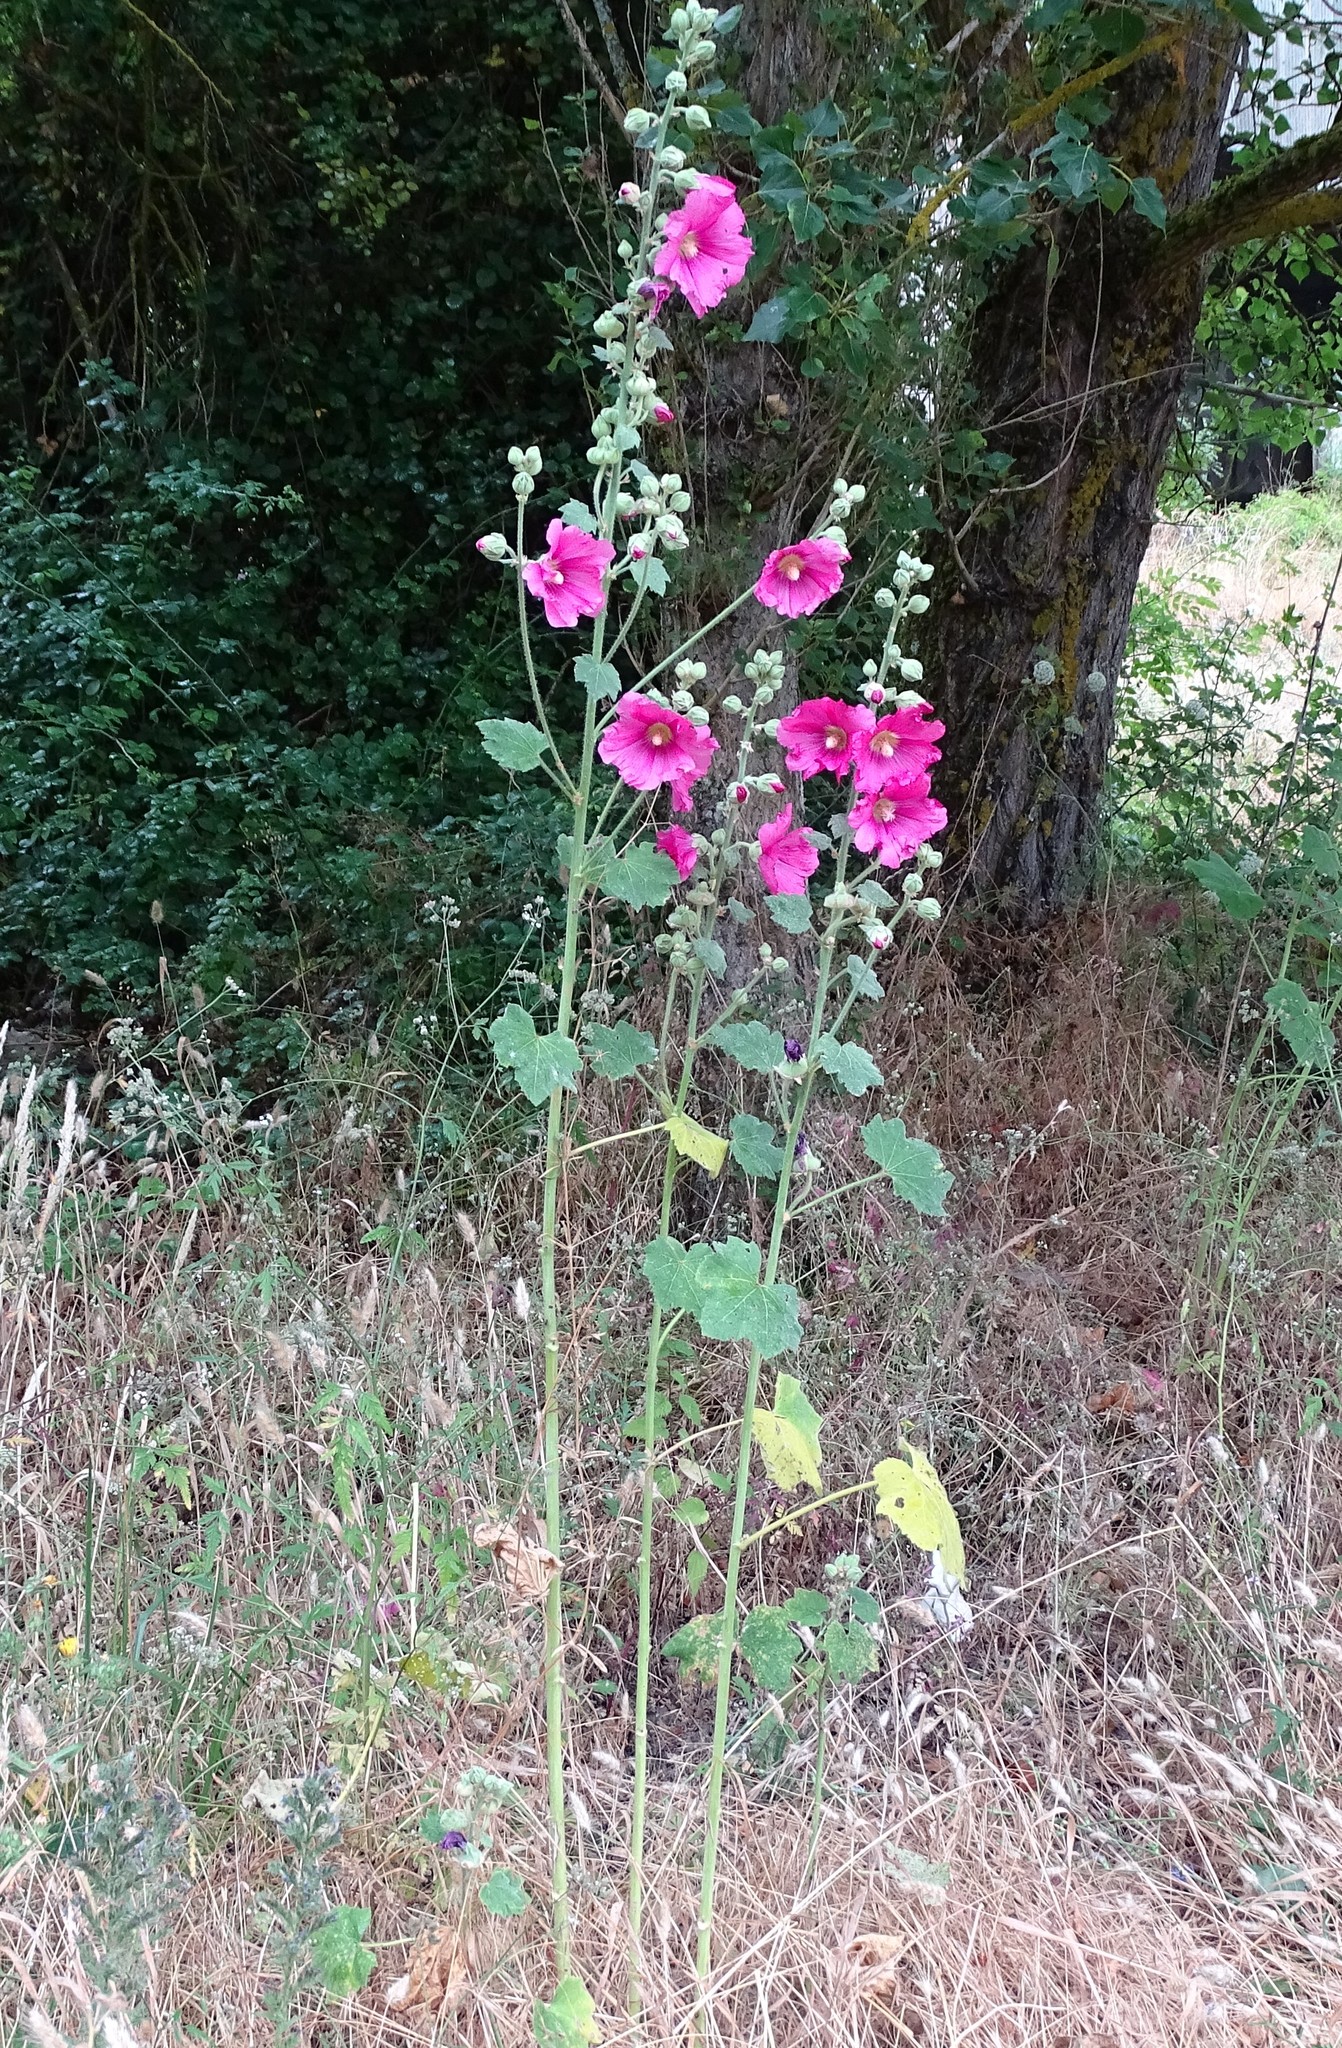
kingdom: Plantae
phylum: Tracheophyta
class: Magnoliopsida
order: Malvales
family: Malvaceae
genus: Alcea
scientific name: Alcea rosea
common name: Hollyhock
